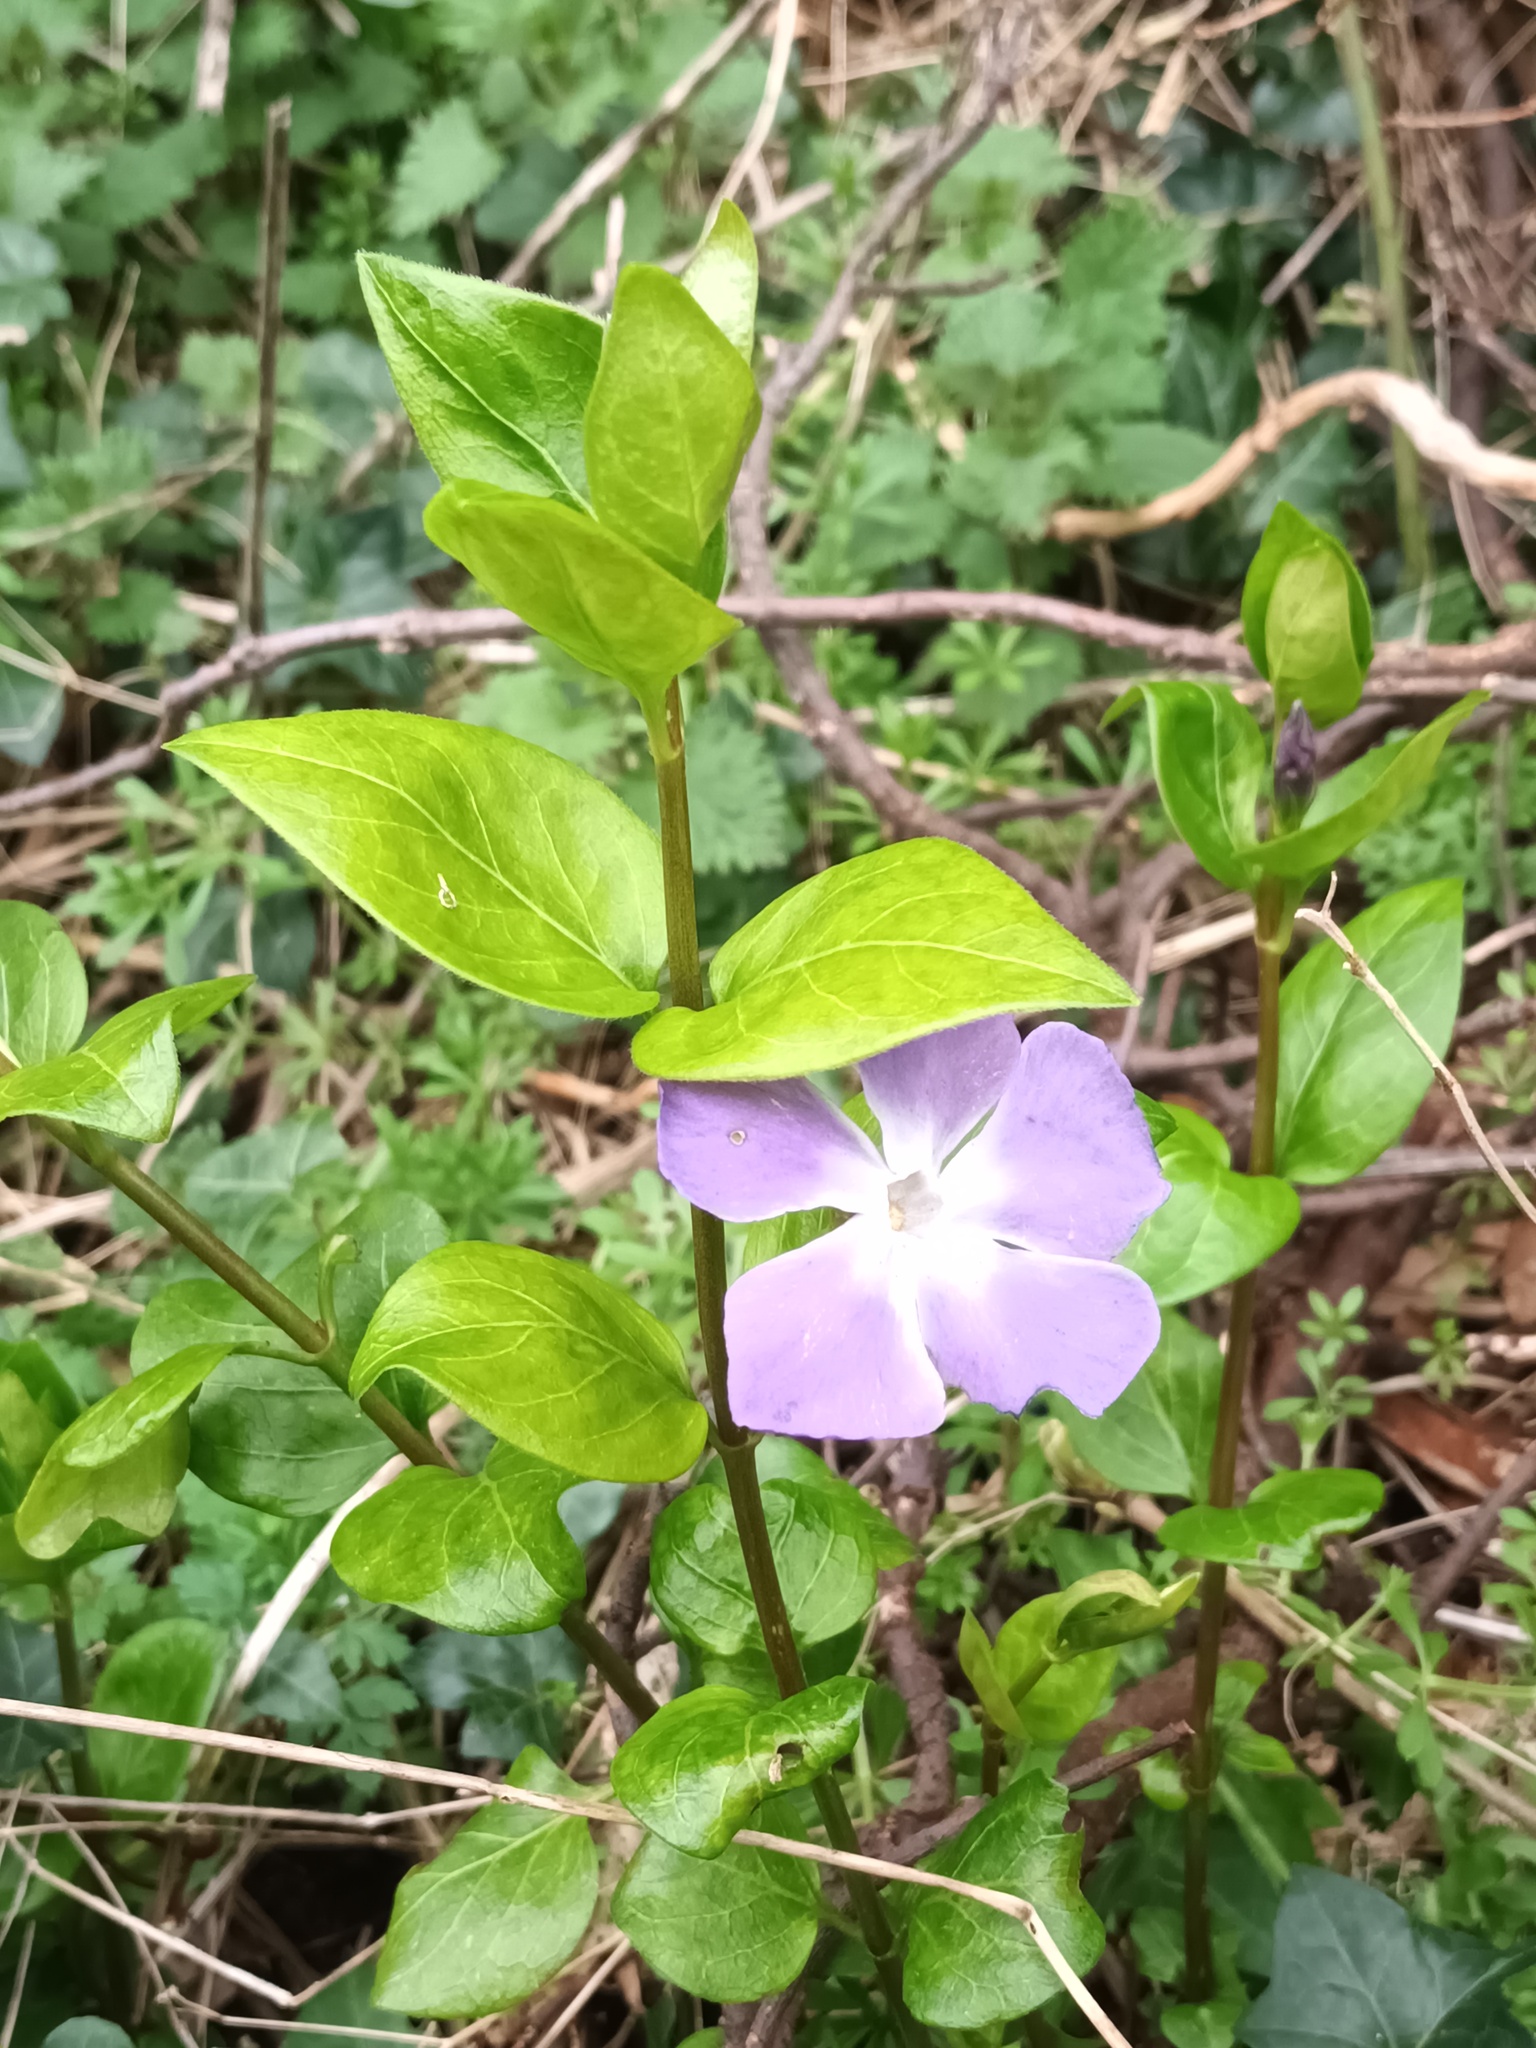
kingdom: Plantae
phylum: Tracheophyta
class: Magnoliopsida
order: Gentianales
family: Apocynaceae
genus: Vinca
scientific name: Vinca major
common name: Greater periwinkle
